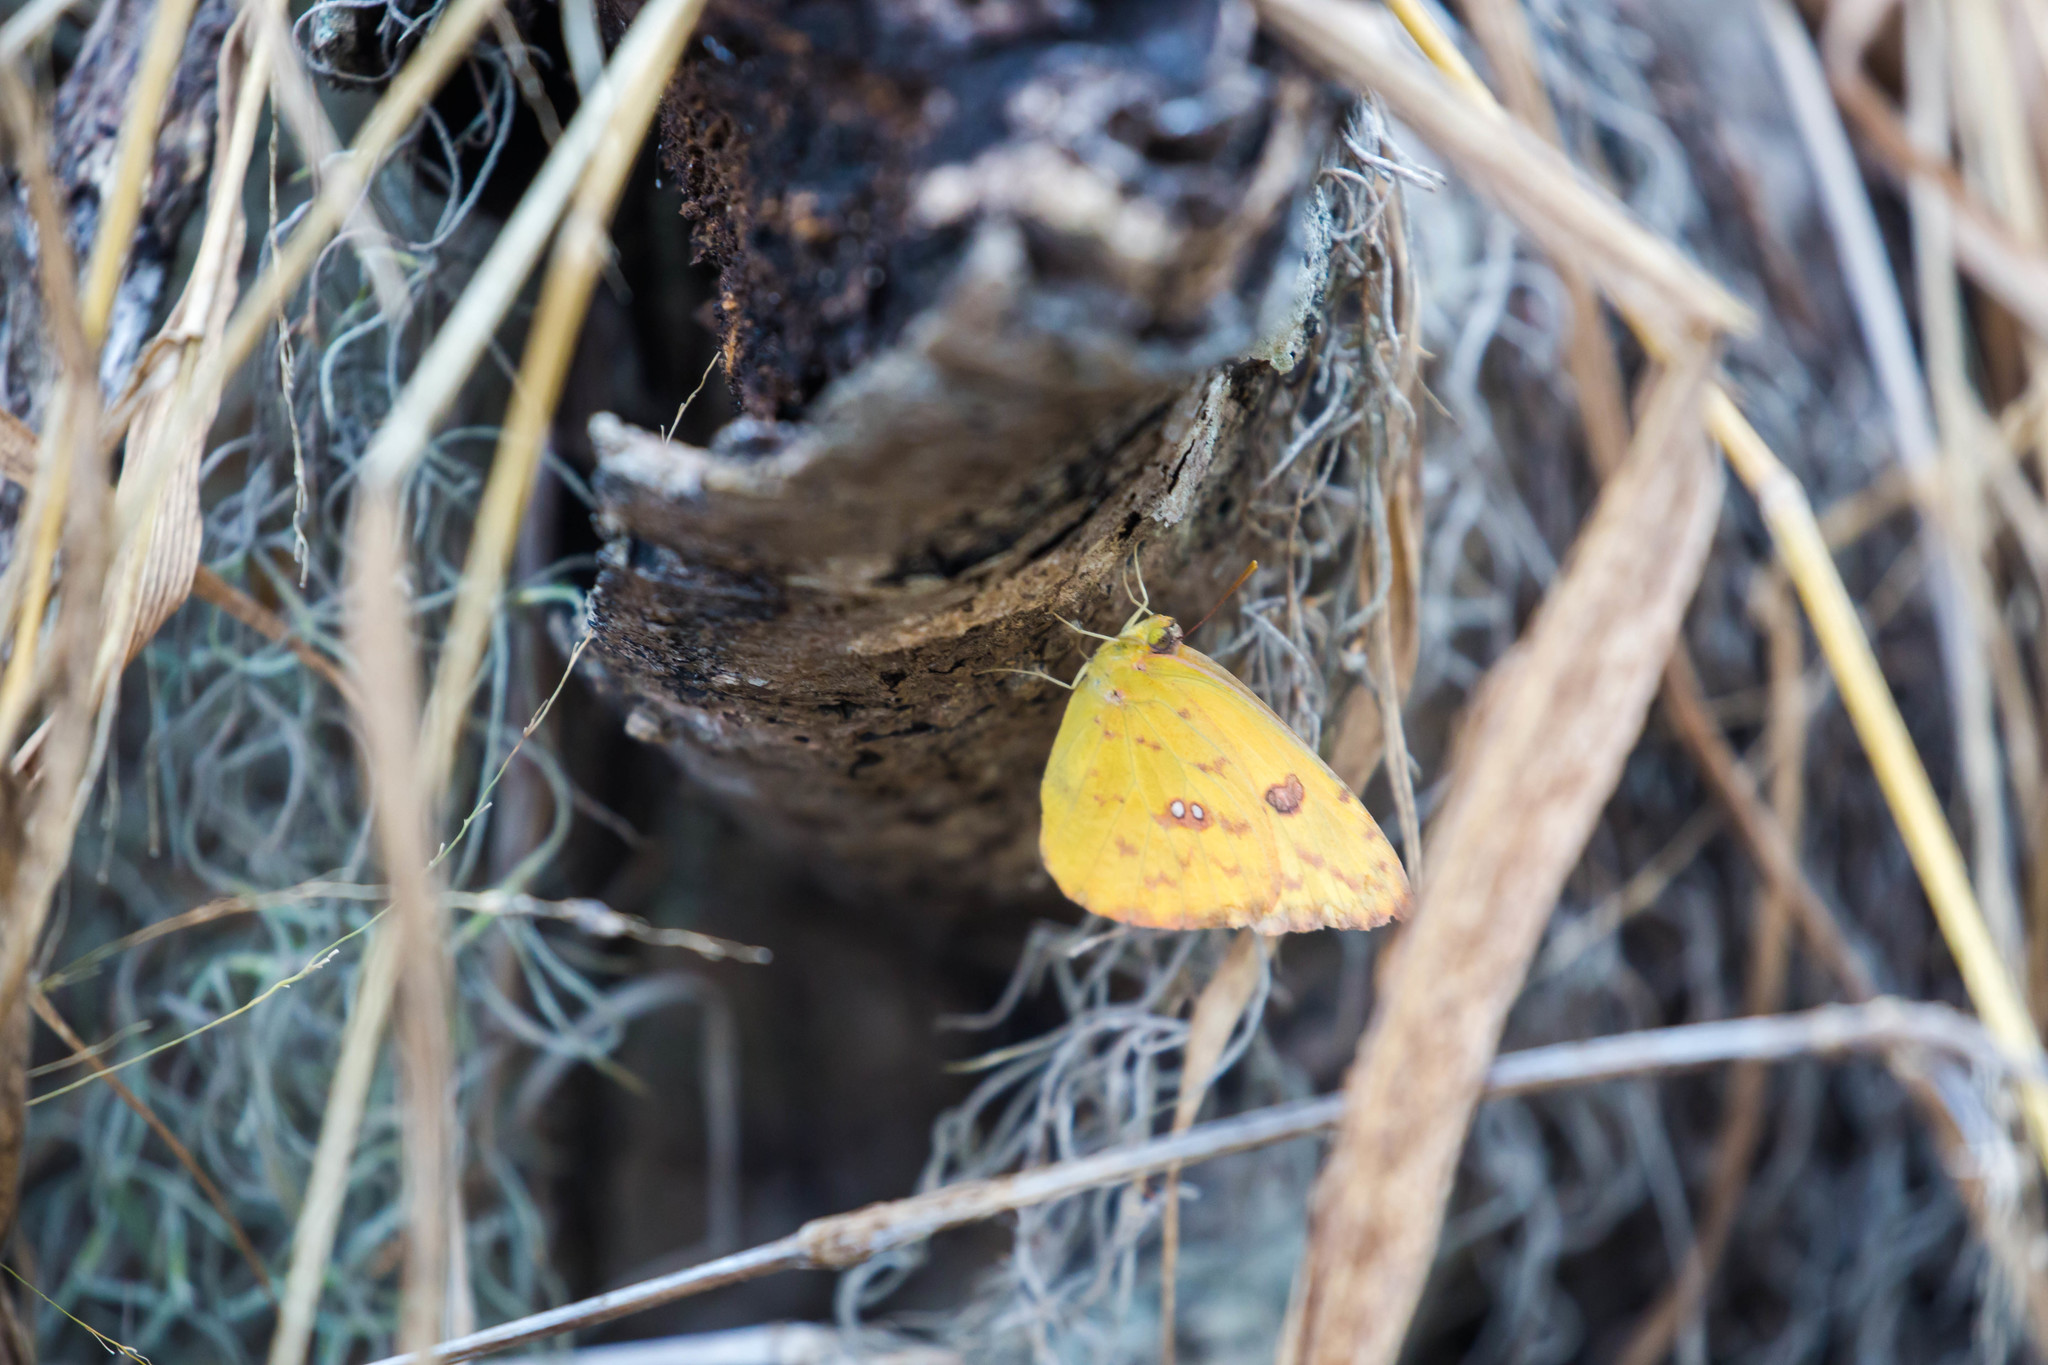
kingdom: Animalia
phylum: Arthropoda
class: Insecta
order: Lepidoptera
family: Pieridae
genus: Phoebis
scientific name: Phoebis sennae
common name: Cloudless sulphur
